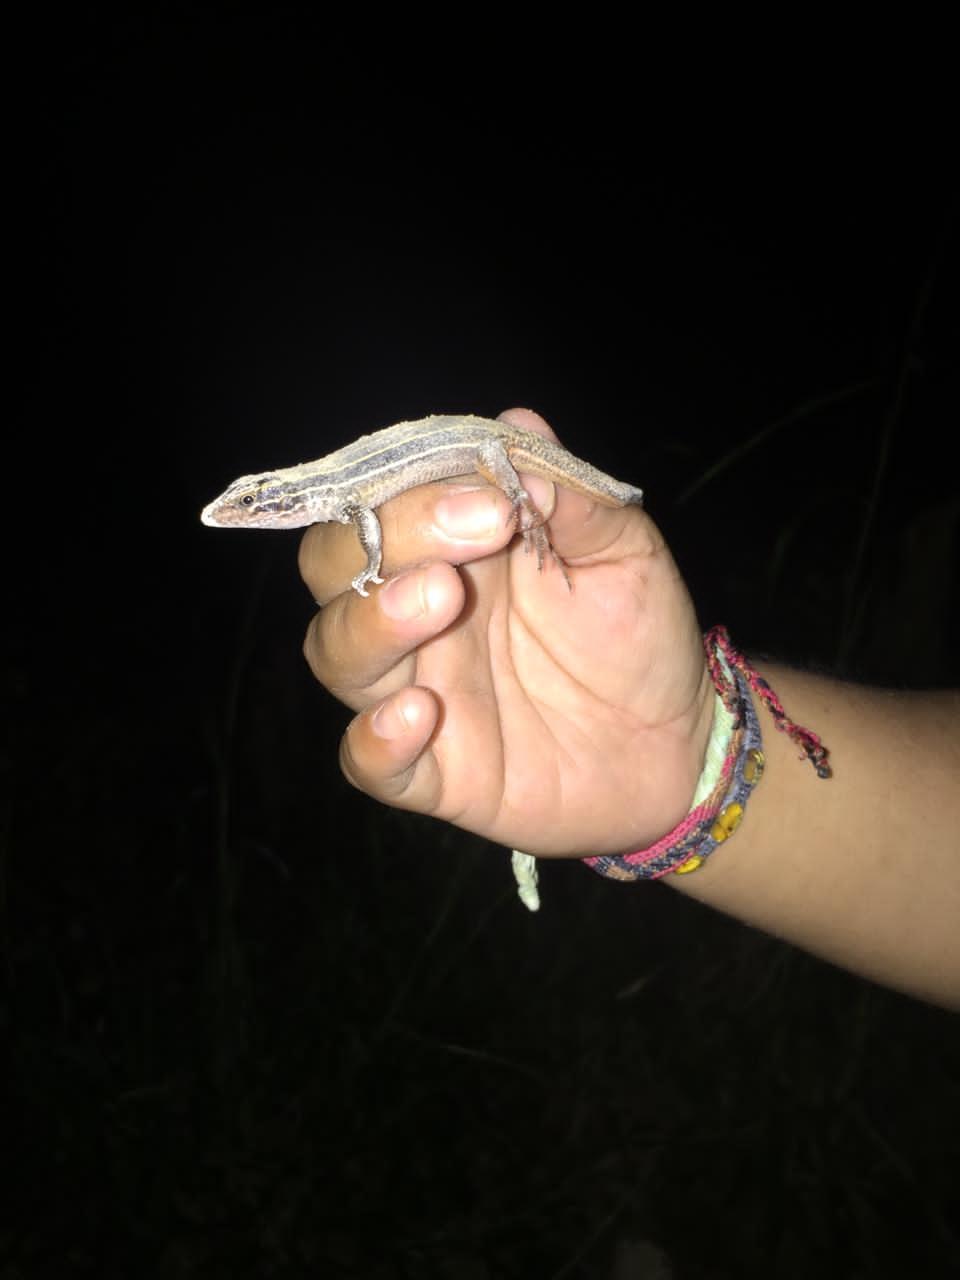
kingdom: Animalia
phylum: Chordata
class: Squamata
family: Teiidae
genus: Aspidoscelis
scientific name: Aspidoscelis angusticeps
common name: Yucatan whiptail
